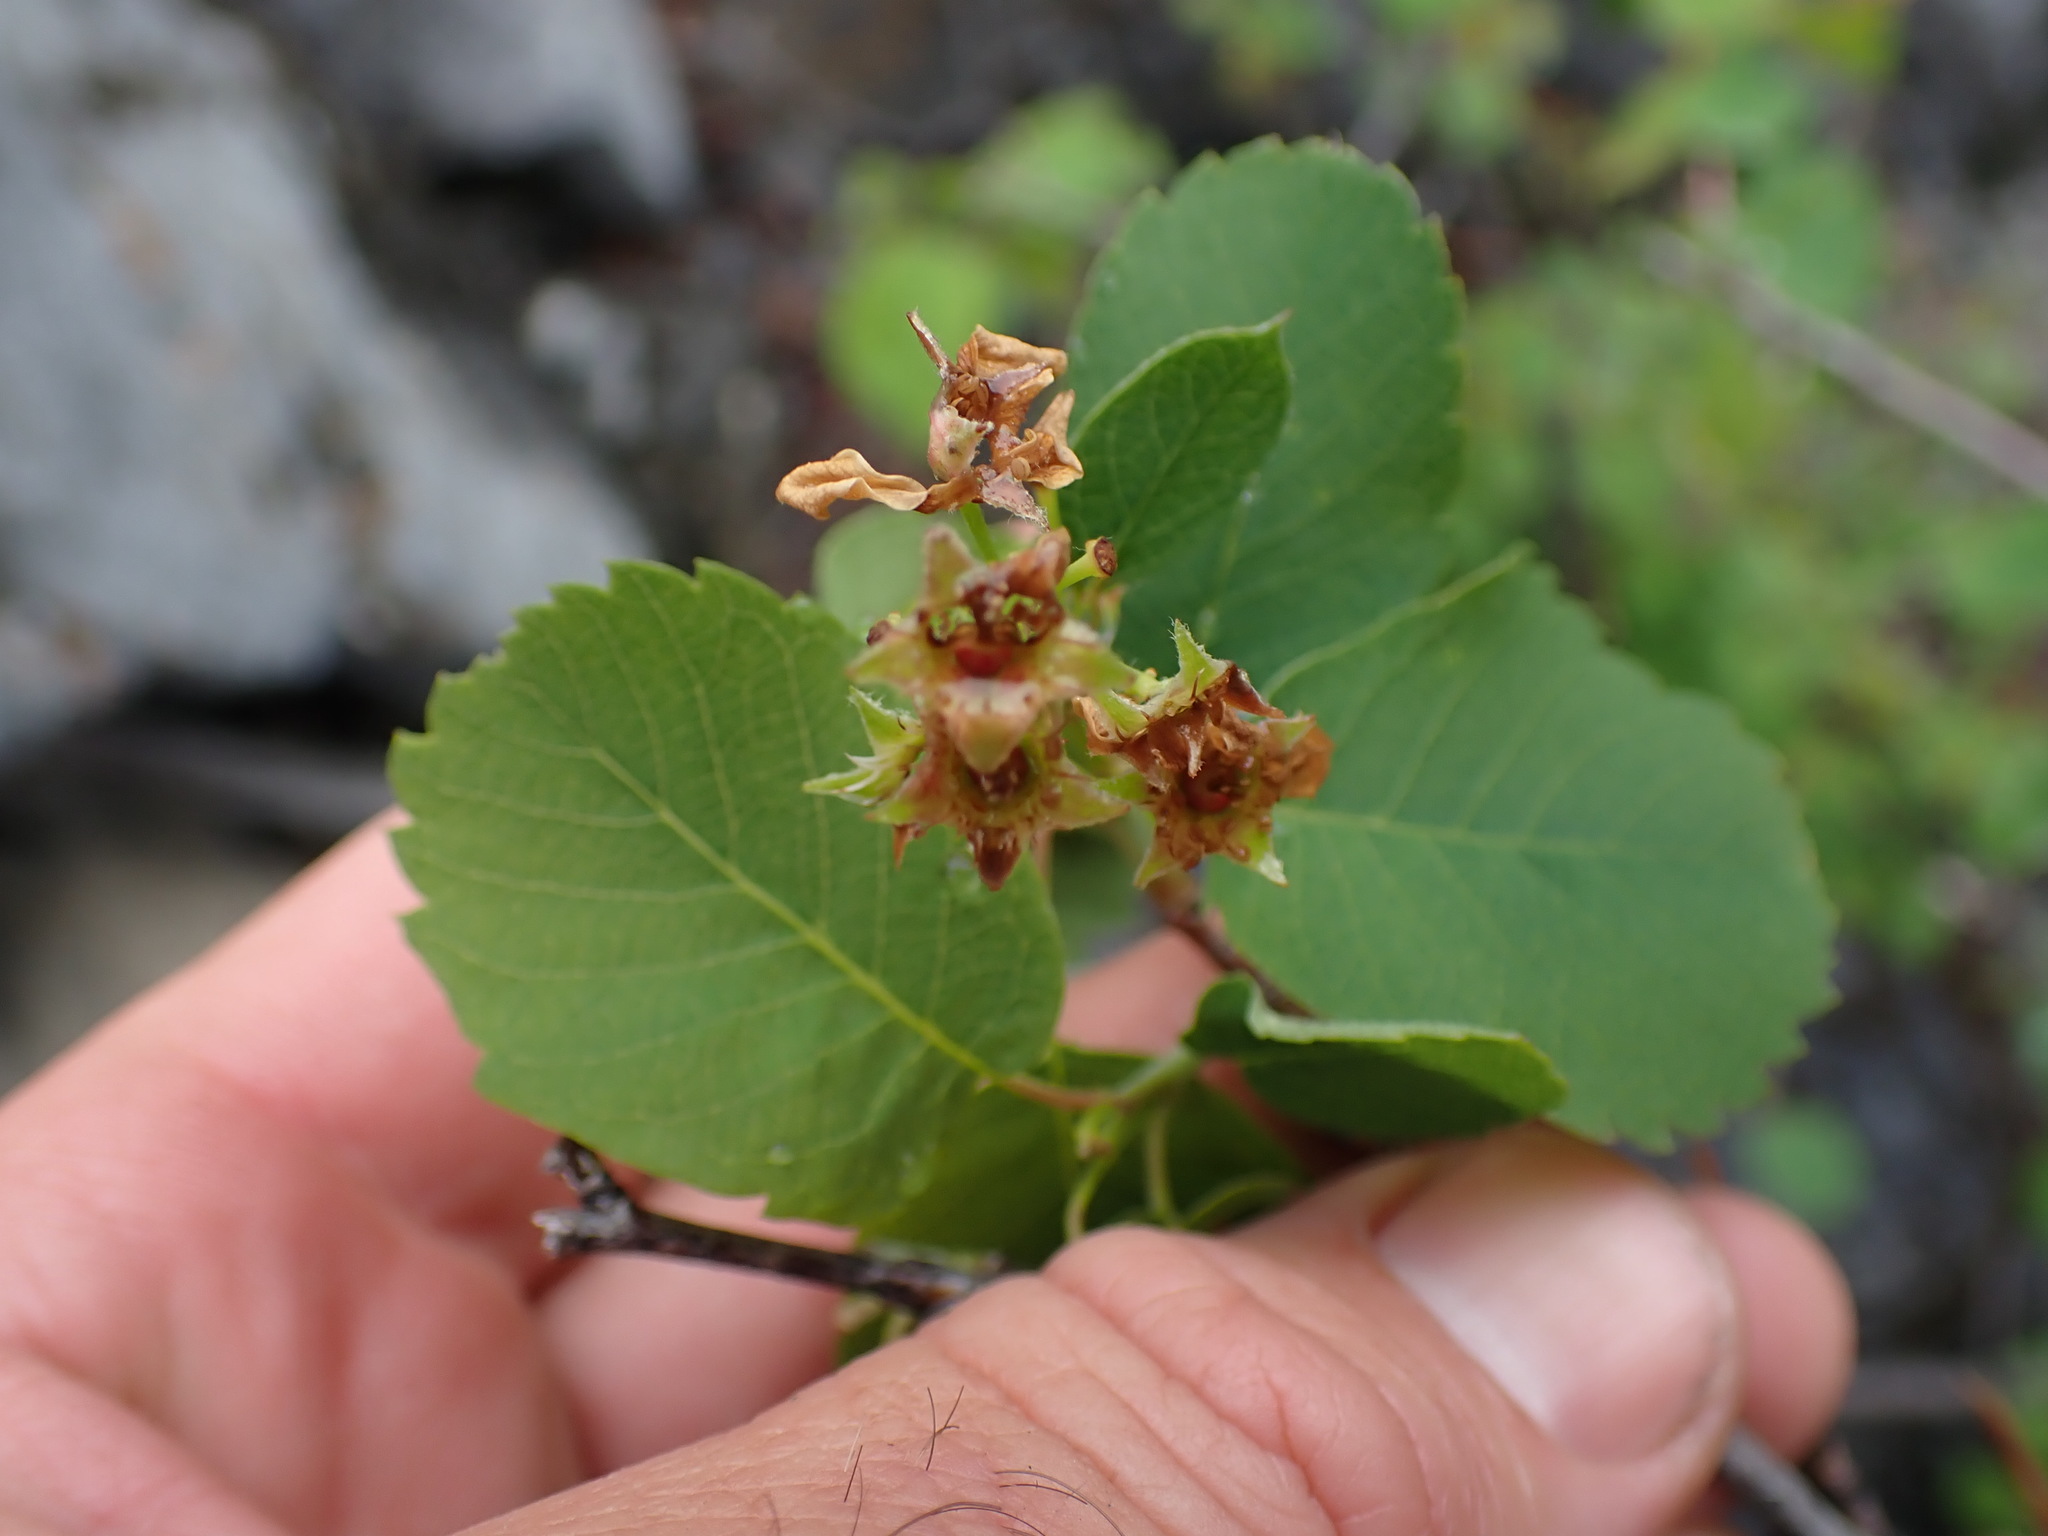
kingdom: Plantae
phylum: Tracheophyta
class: Magnoliopsida
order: Rosales
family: Rosaceae
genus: Amelanchier
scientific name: Amelanchier alnifolia
